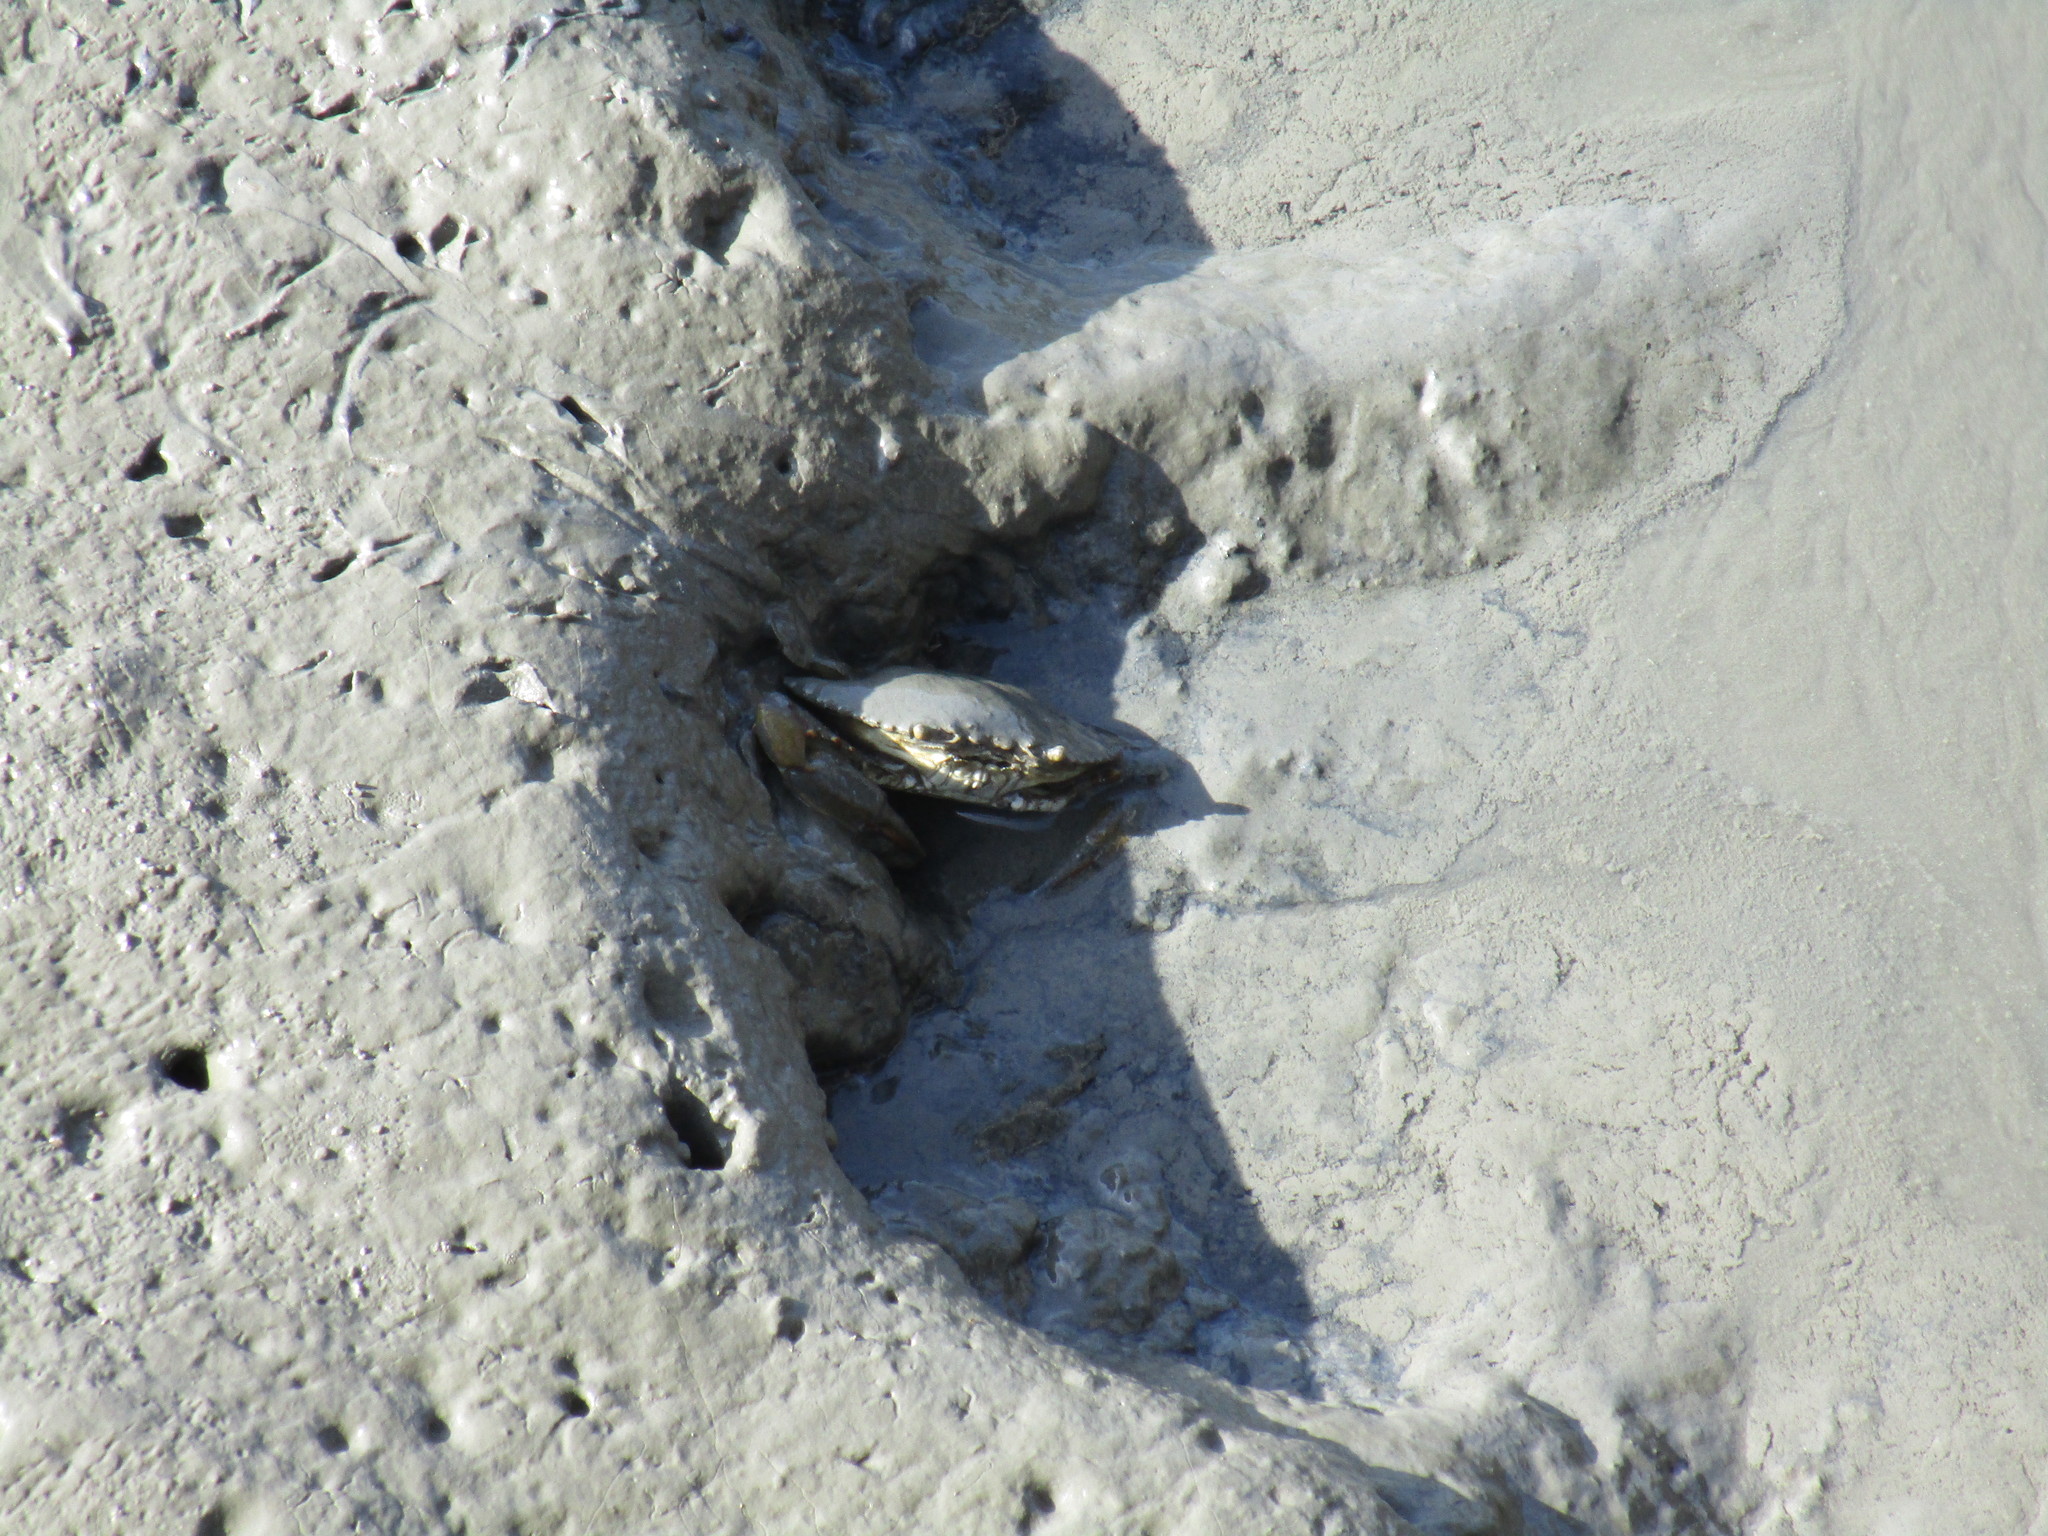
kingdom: Animalia
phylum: Arthropoda
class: Malacostraca
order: Decapoda
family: Portunidae
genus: Callinectes
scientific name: Callinectes sapidus
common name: Blue crab
